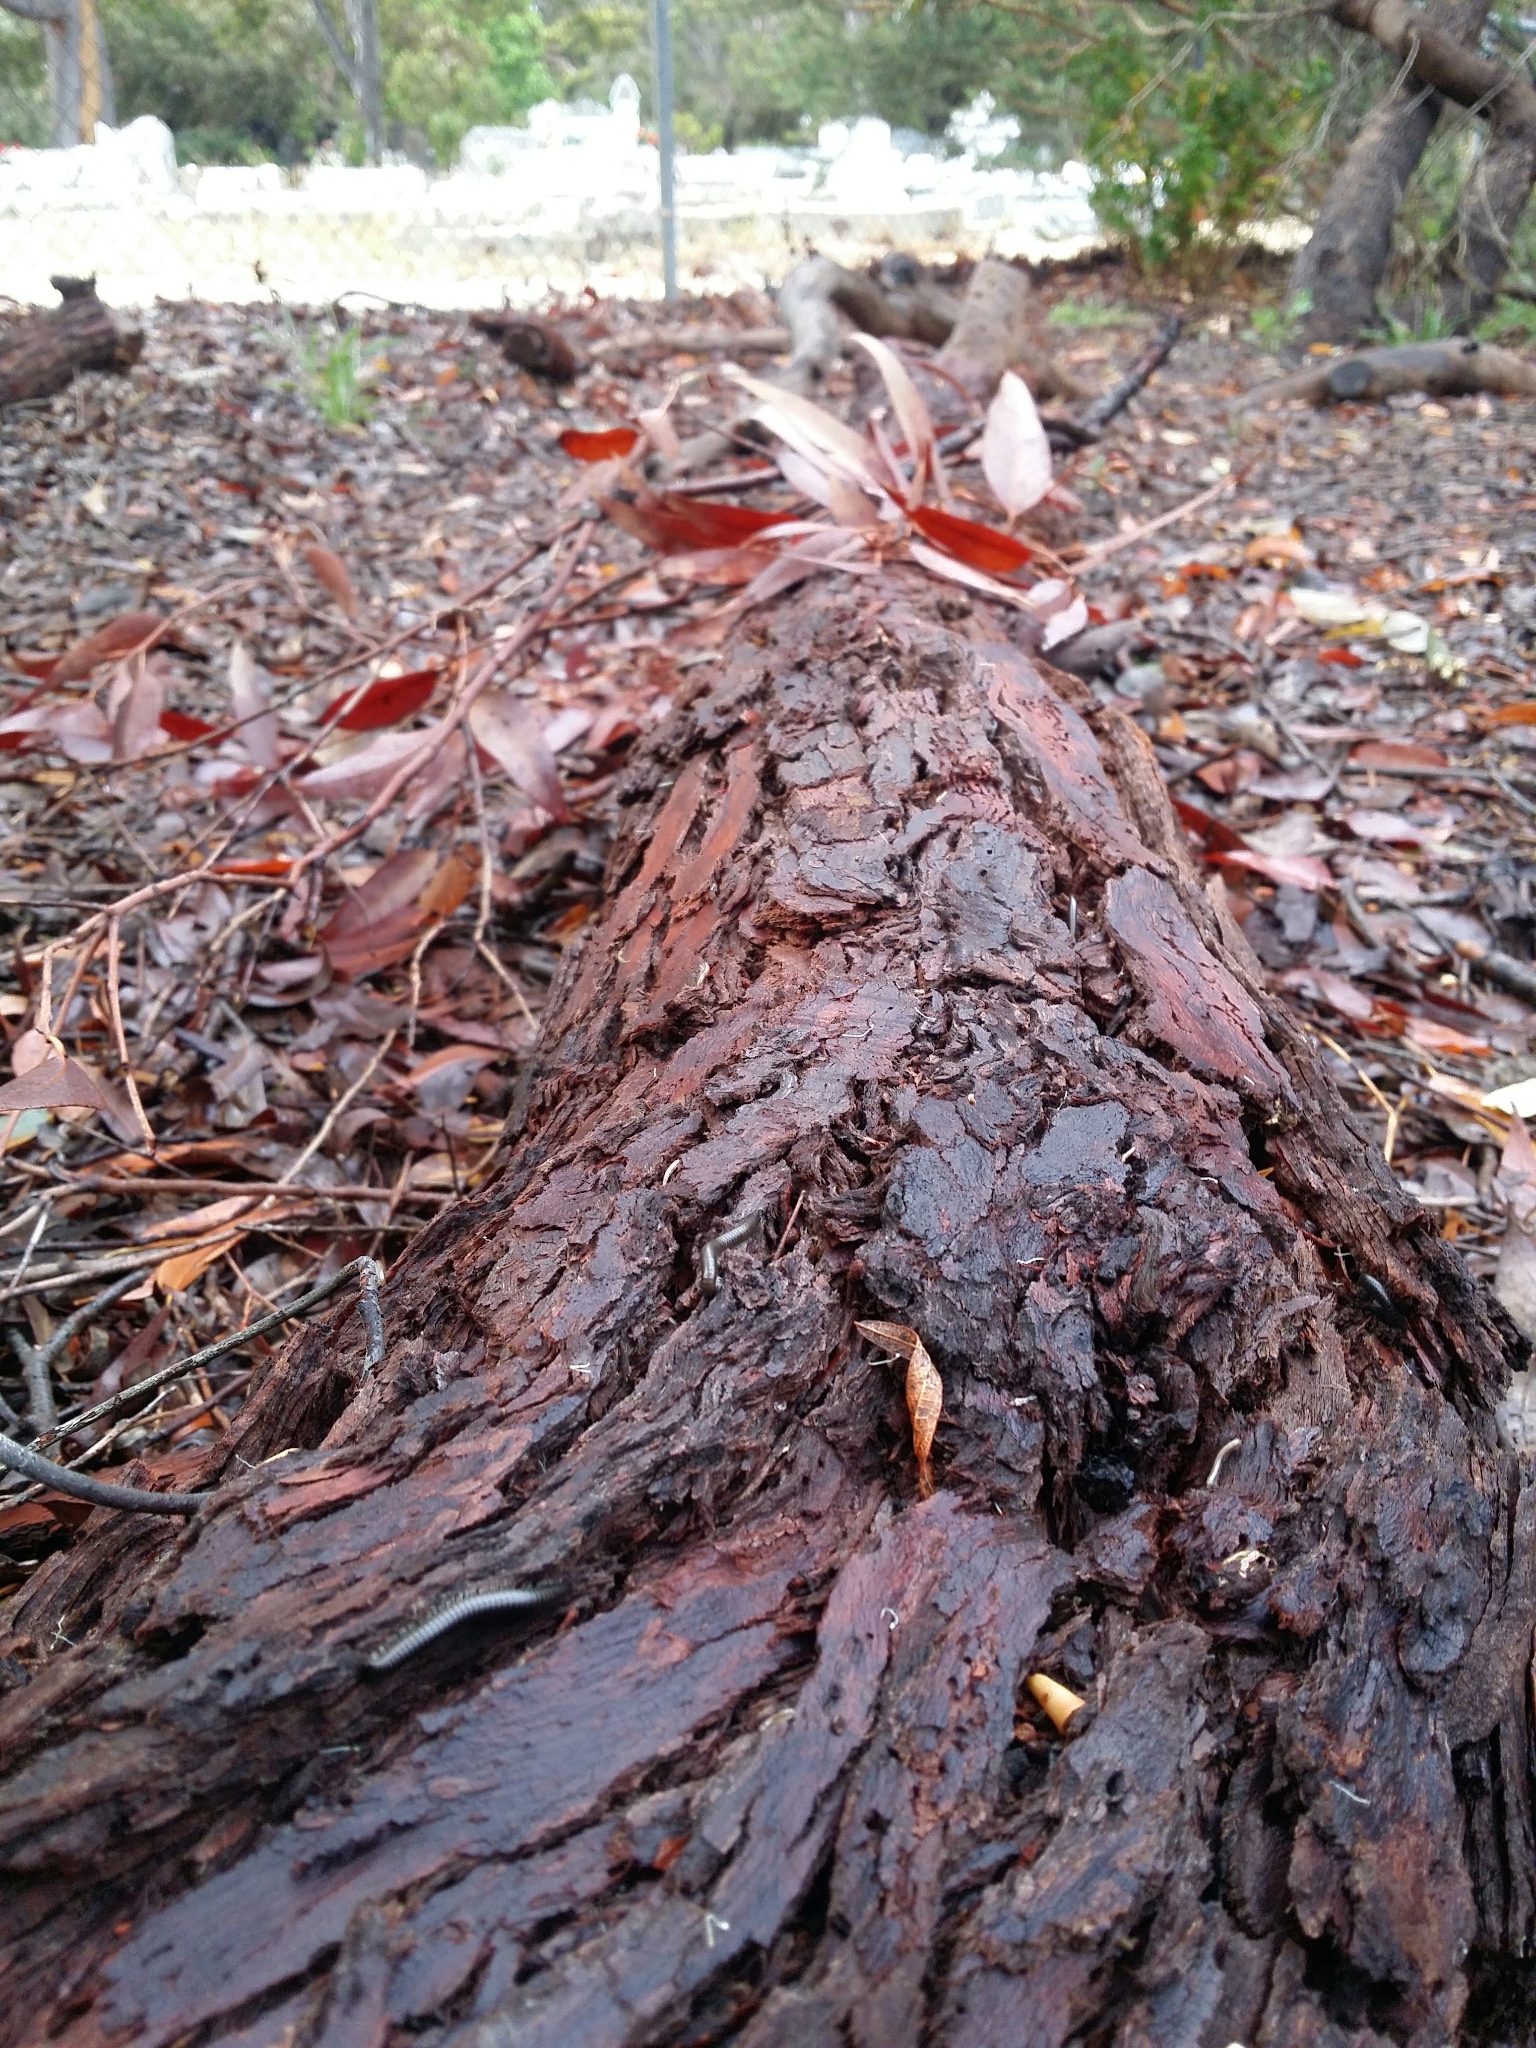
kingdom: Animalia
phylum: Arthropoda
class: Diplopoda
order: Julida
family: Julidae
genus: Ommatoiulus
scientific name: Ommatoiulus moreleti
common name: Portuguese millipede
